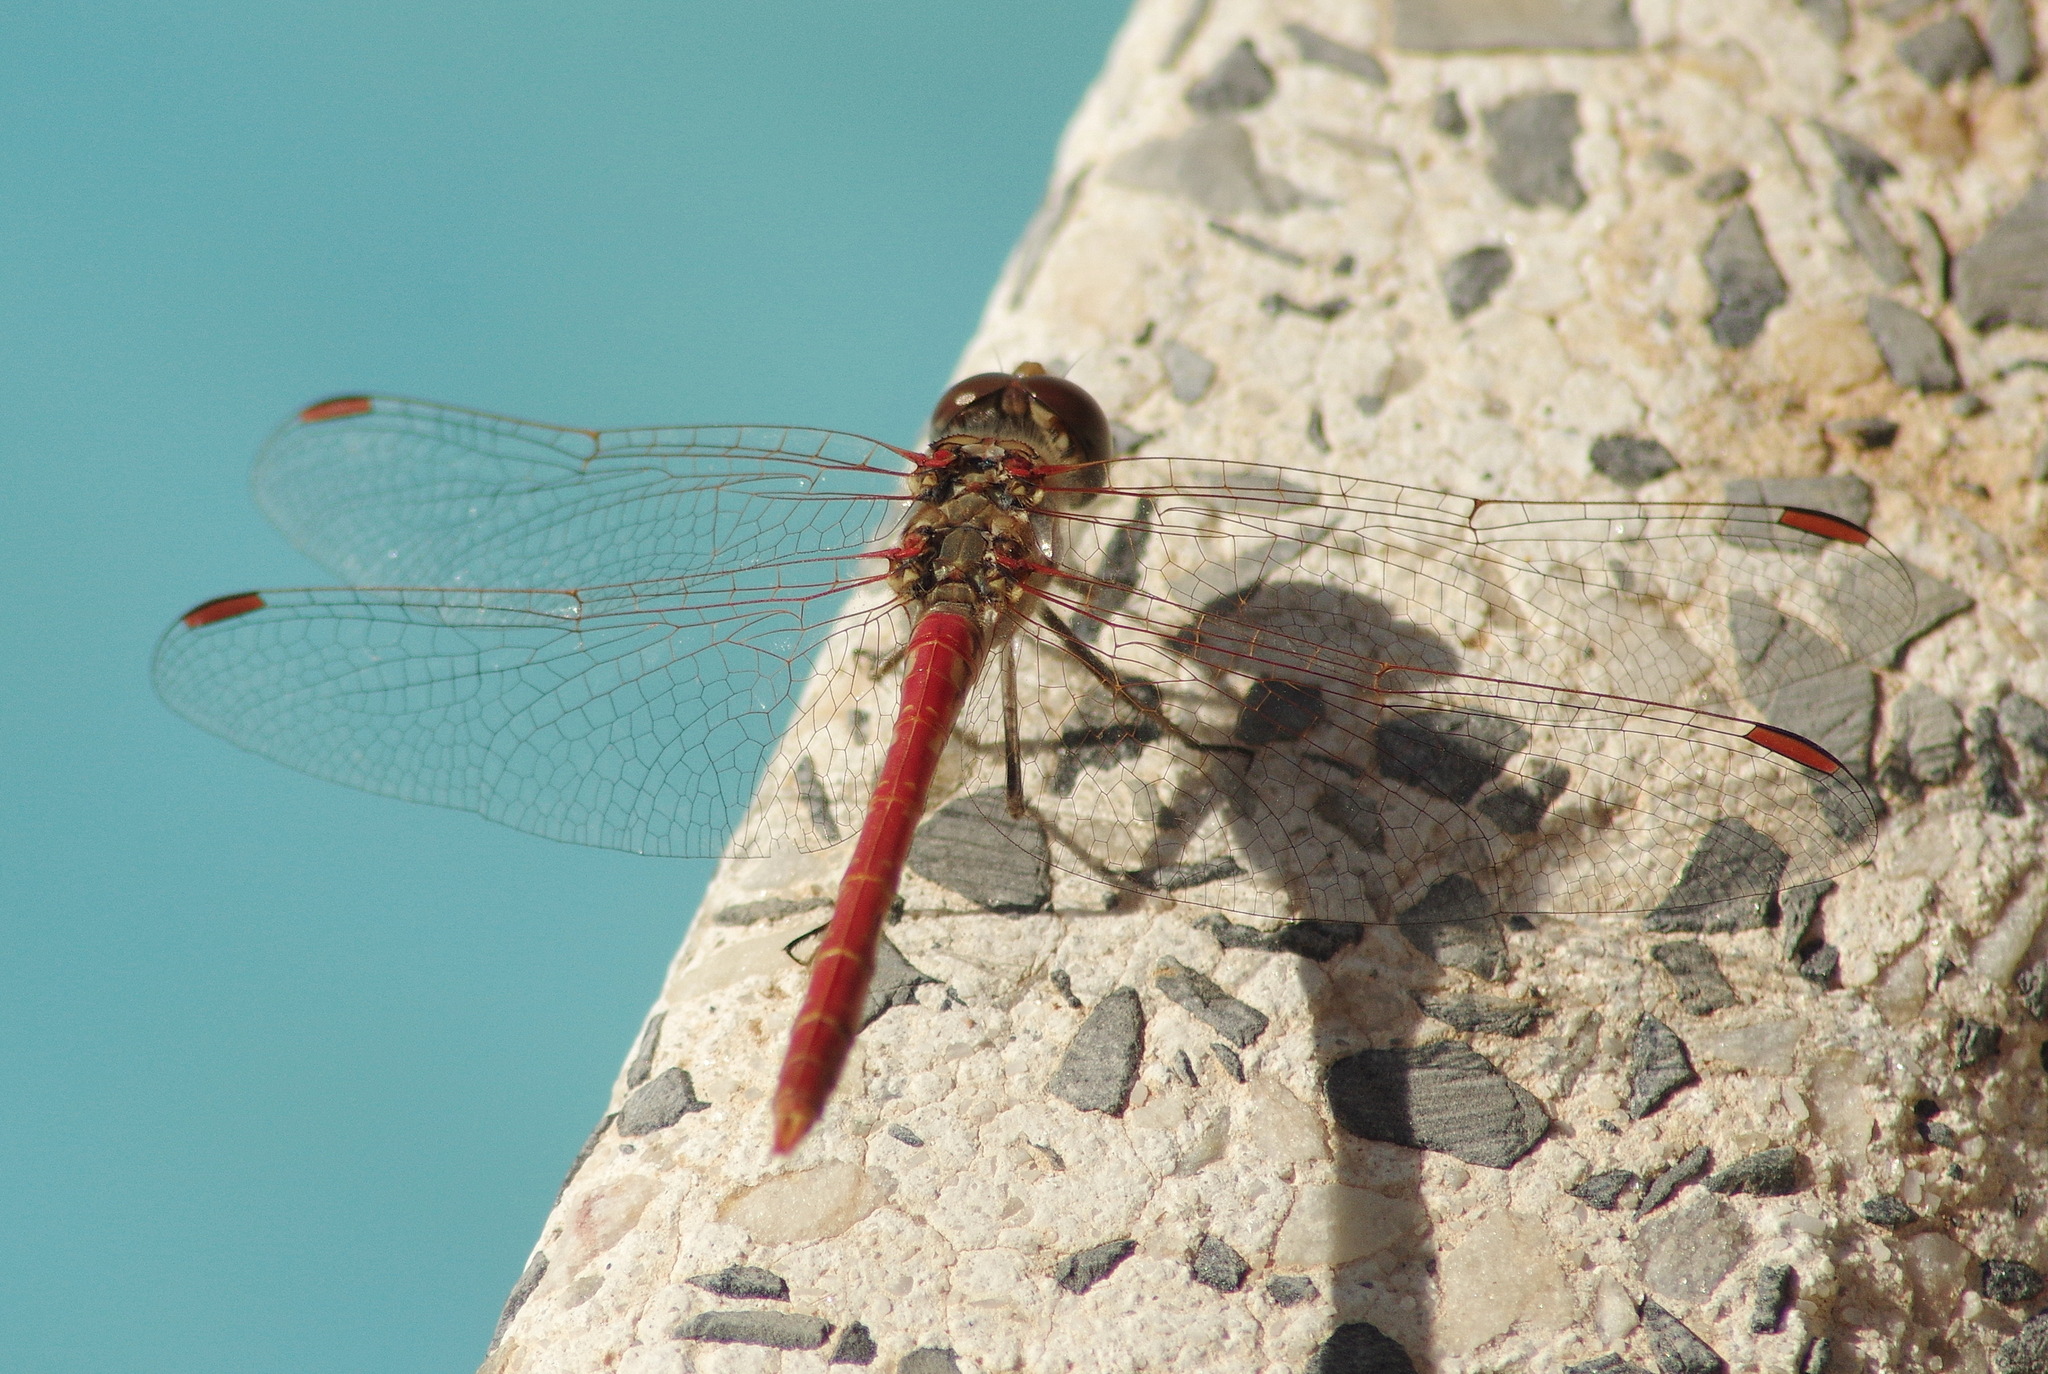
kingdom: Animalia
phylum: Arthropoda
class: Insecta
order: Odonata
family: Libellulidae
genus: Sympetrum
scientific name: Sympetrum sinaiticum
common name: Desert darter
